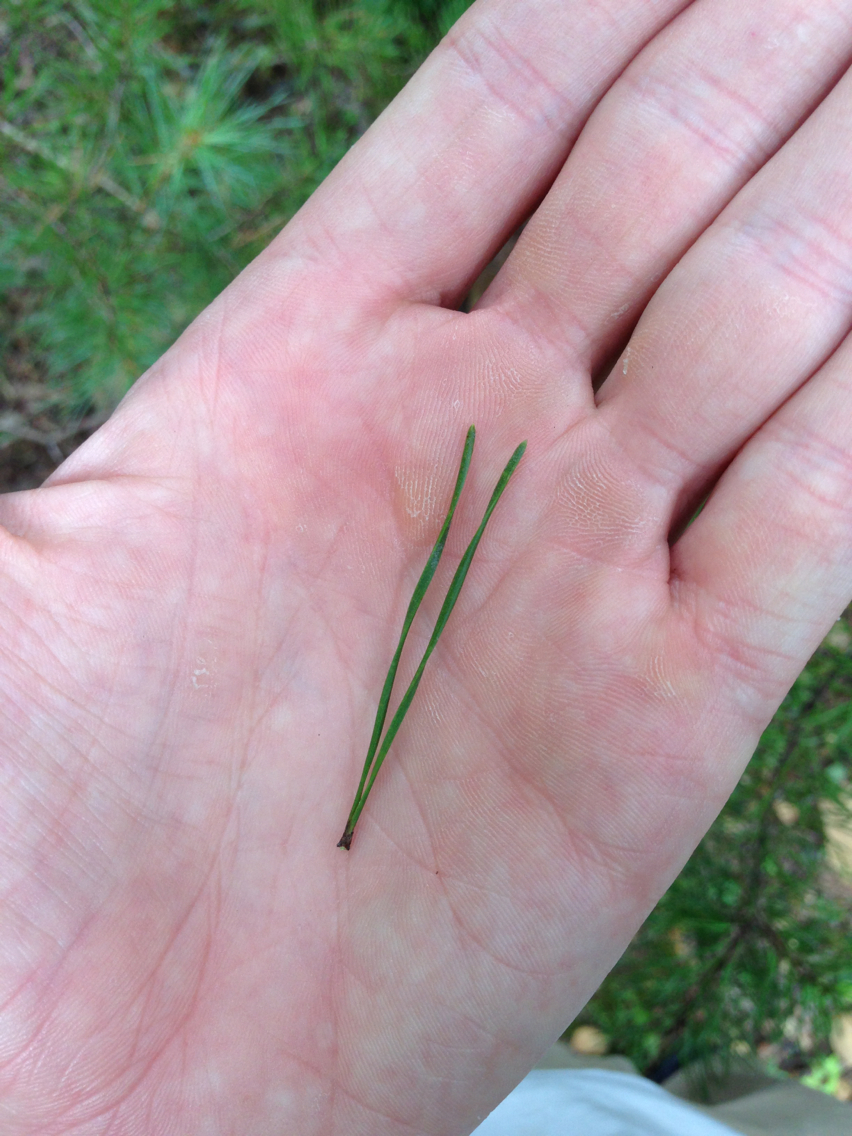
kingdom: Plantae
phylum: Tracheophyta
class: Pinopsida
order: Pinales
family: Pinaceae
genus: Pinus
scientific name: Pinus virginiana
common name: Scrub pine
